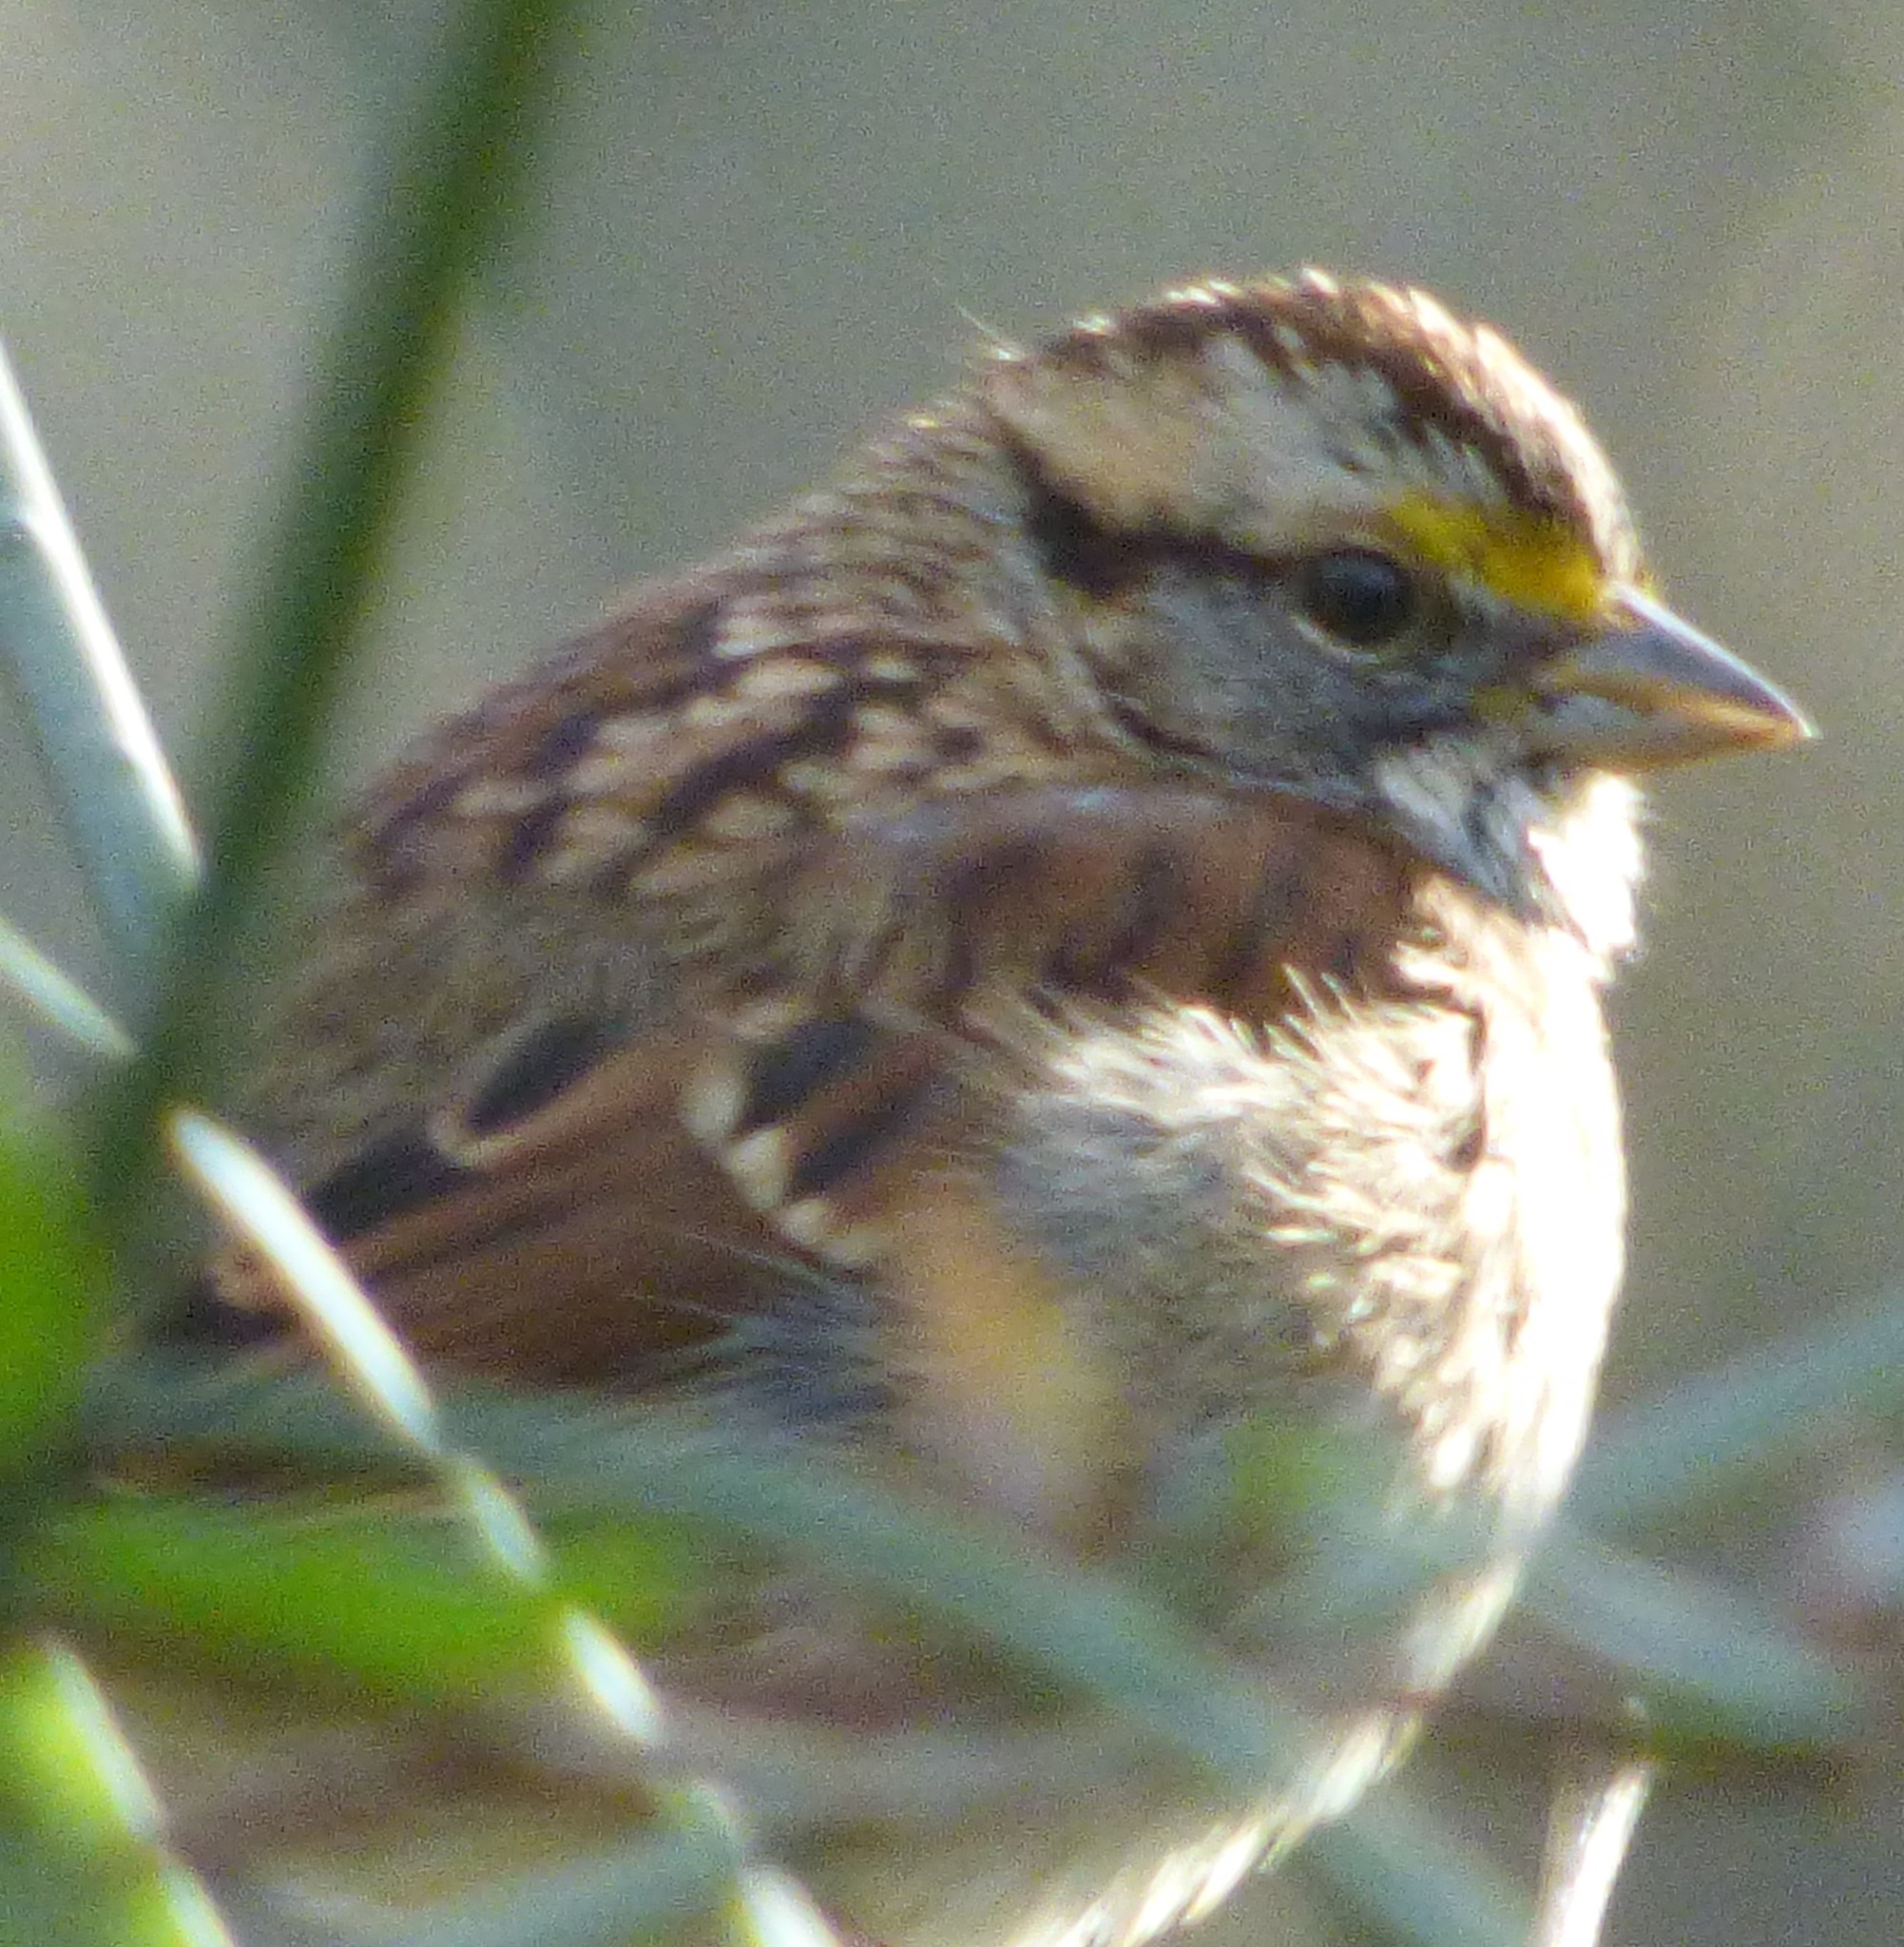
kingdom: Animalia
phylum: Chordata
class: Aves
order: Passeriformes
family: Passerellidae
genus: Zonotrichia
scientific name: Zonotrichia albicollis
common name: White-throated sparrow
